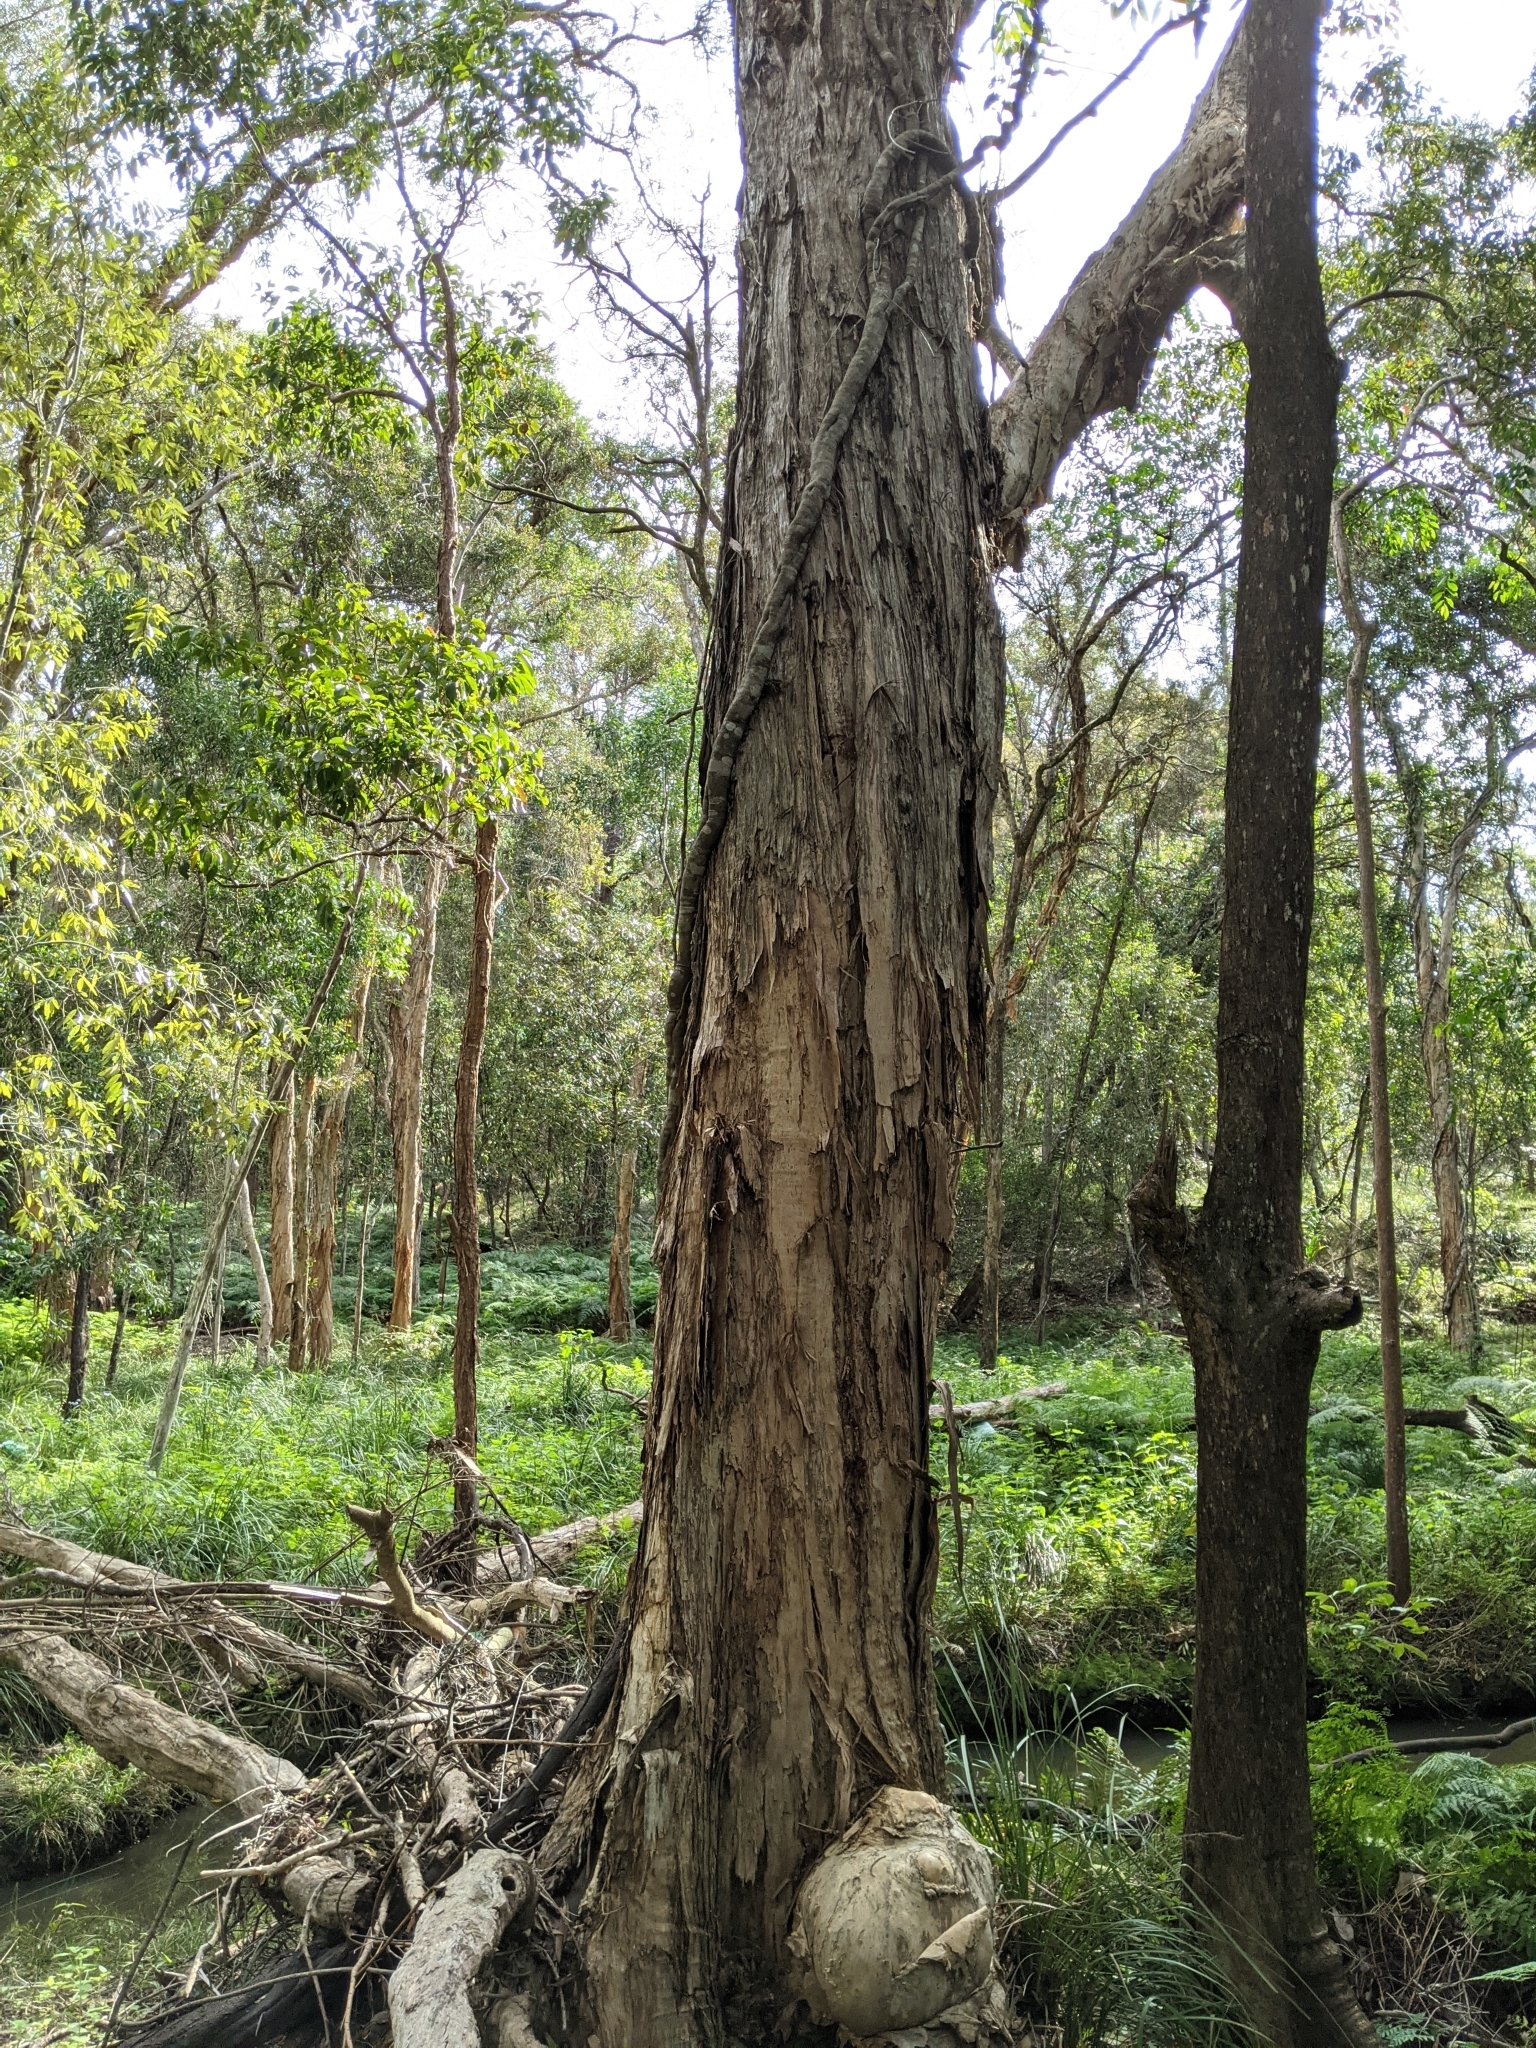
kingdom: Plantae
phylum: Tracheophyta
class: Magnoliopsida
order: Myrtales
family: Myrtaceae
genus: Melaleuca
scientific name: Melaleuca quinquenervia
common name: Punktree
